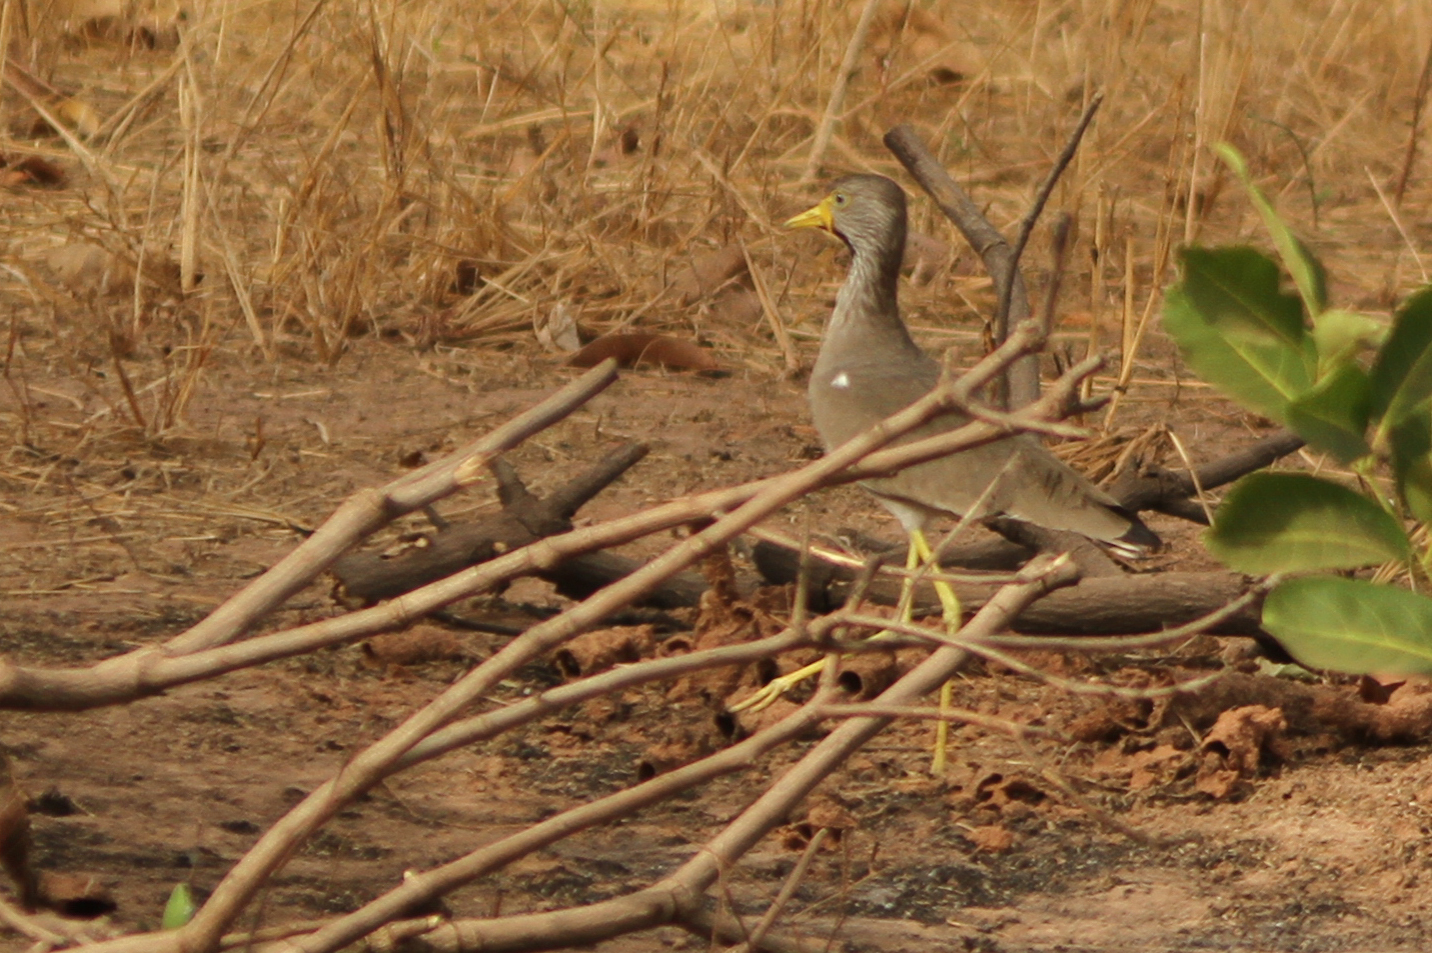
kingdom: Animalia
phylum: Chordata
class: Aves
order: Charadriiformes
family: Charadriidae
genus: Vanellus
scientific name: Vanellus senegallus
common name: African wattled lapwing
